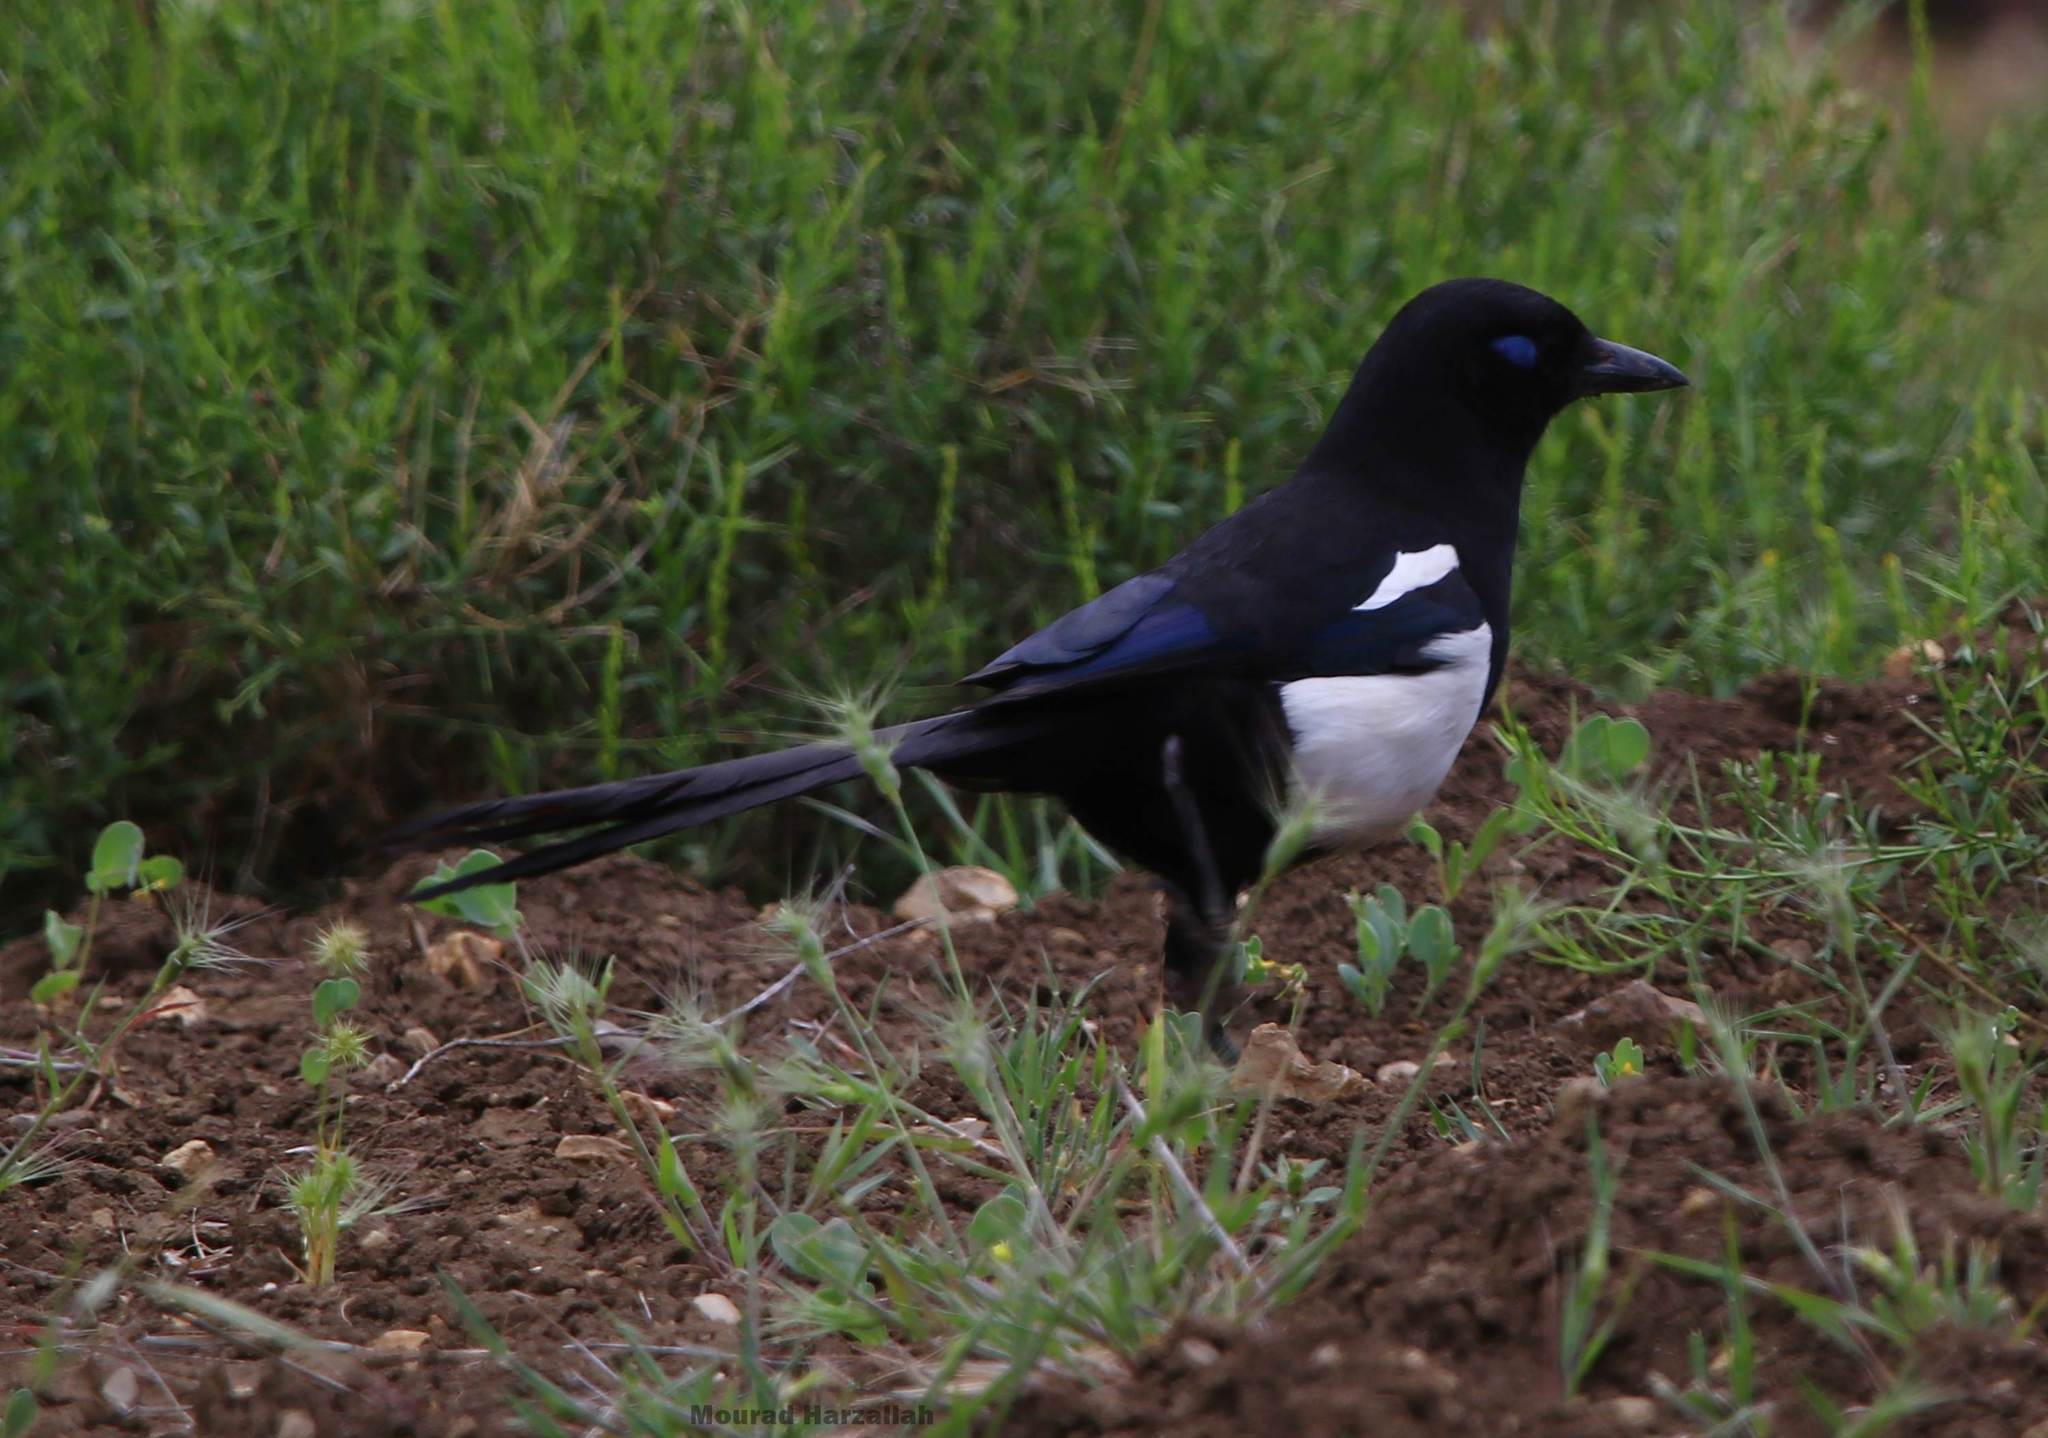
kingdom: Animalia
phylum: Chordata
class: Aves
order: Passeriformes
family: Corvidae
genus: Pica
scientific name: Pica mauritanica
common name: Maghreb magpie
